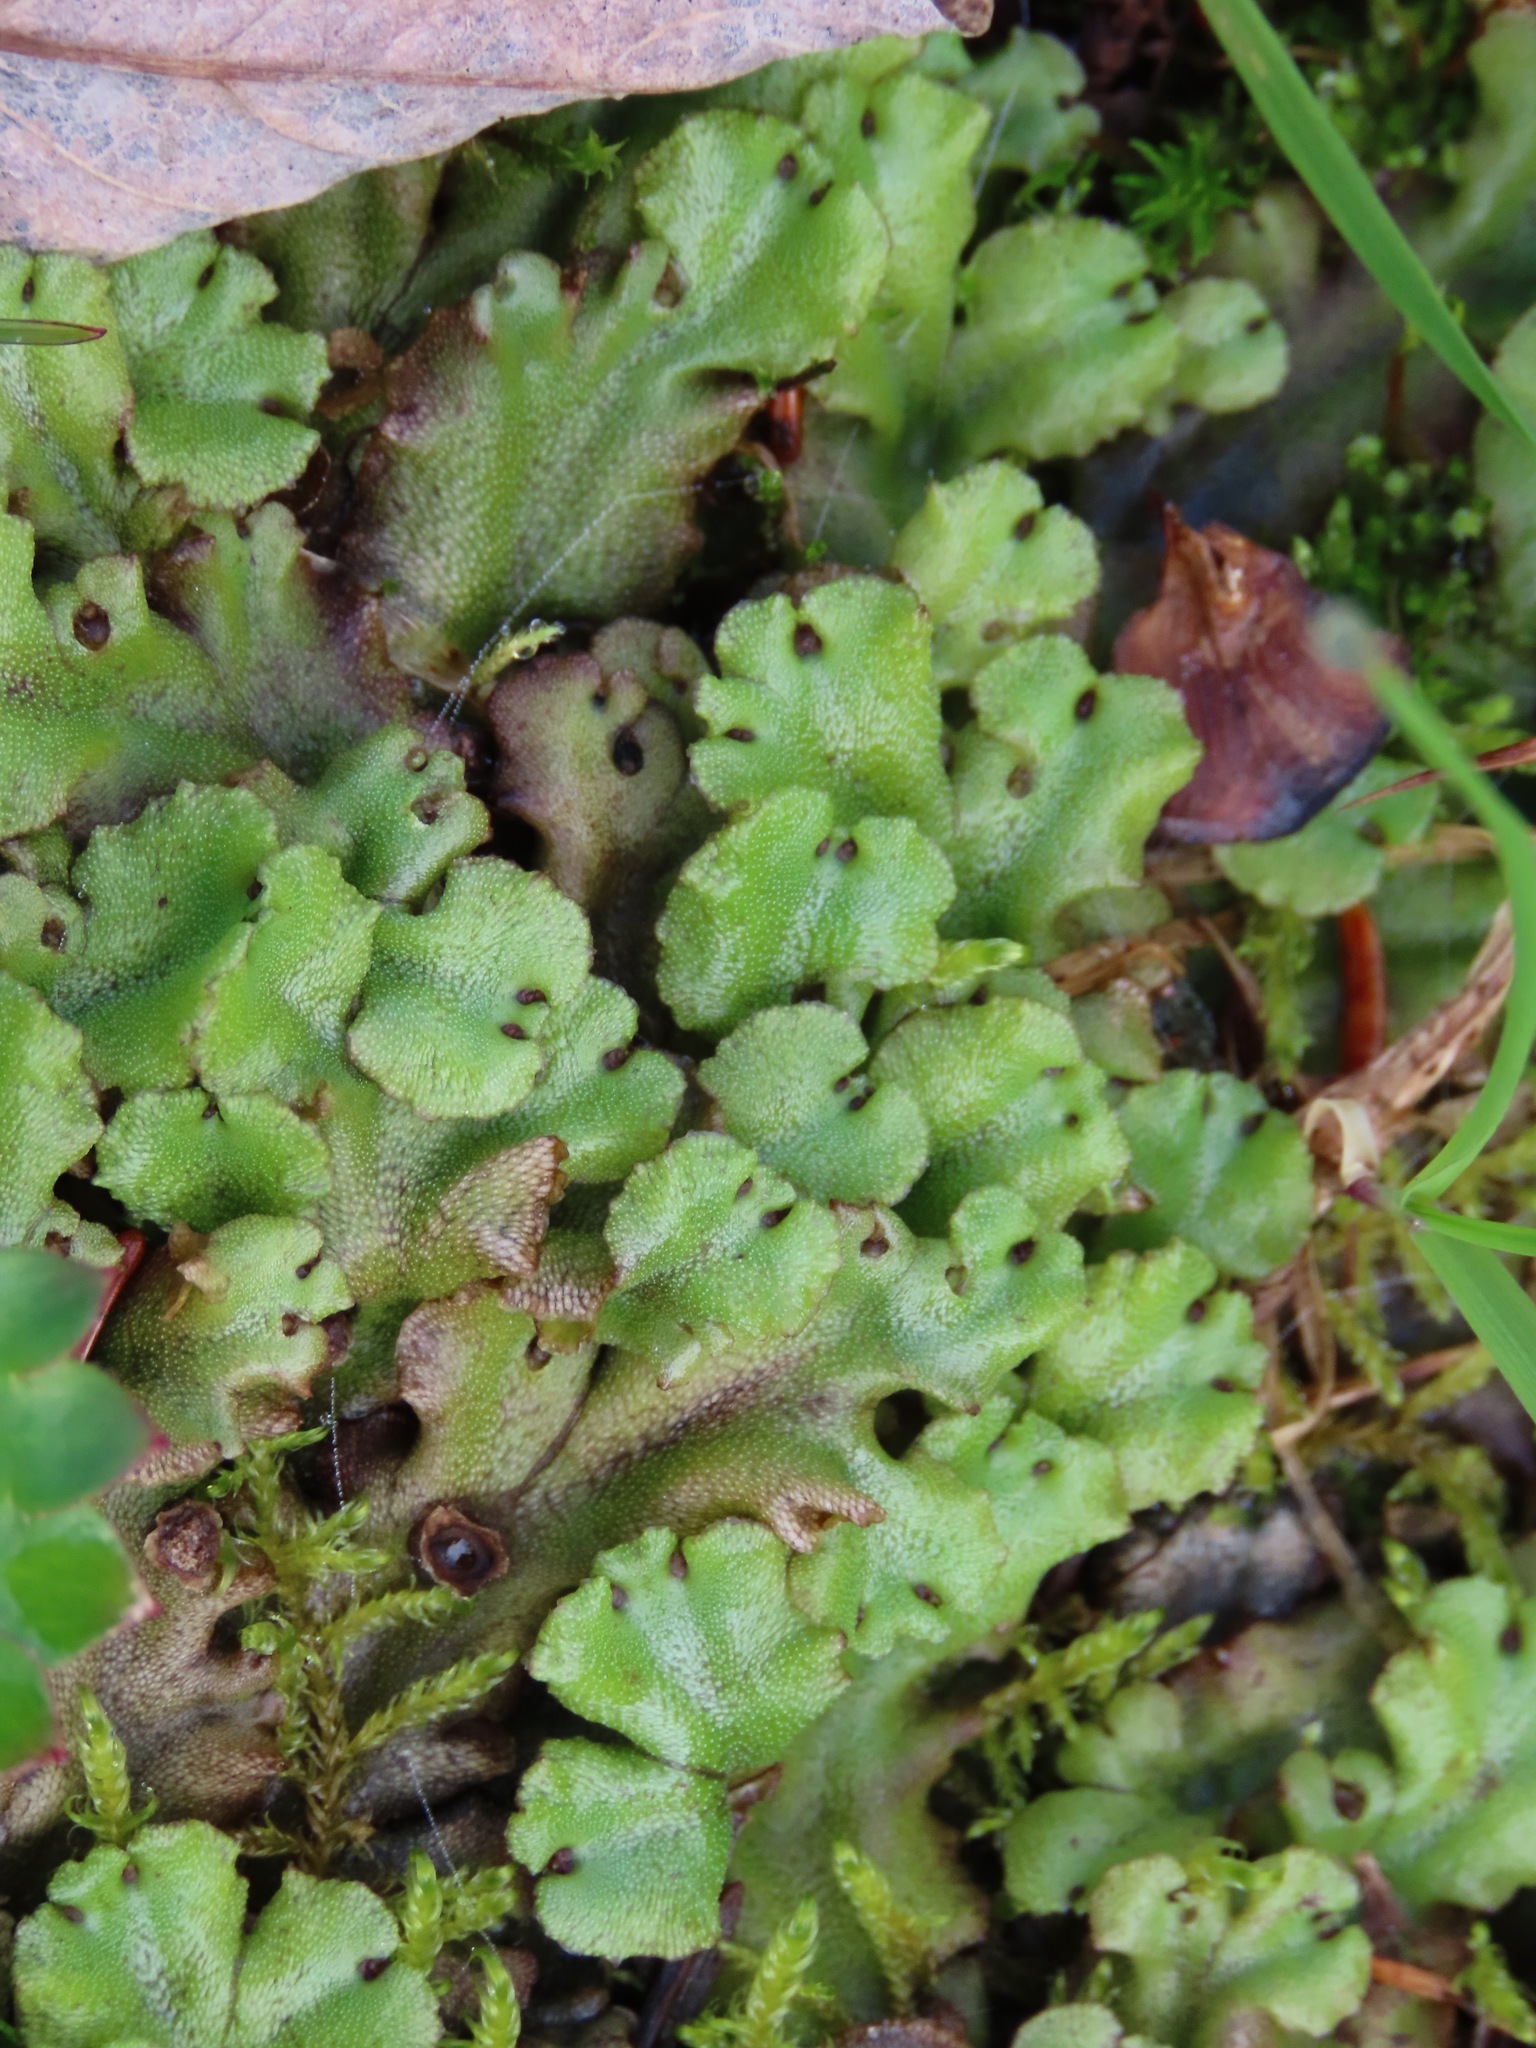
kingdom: Plantae
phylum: Marchantiophyta
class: Marchantiopsida
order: Marchantiales
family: Marchantiaceae
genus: Marchantia
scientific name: Marchantia polymorpha
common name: Common liverwort
